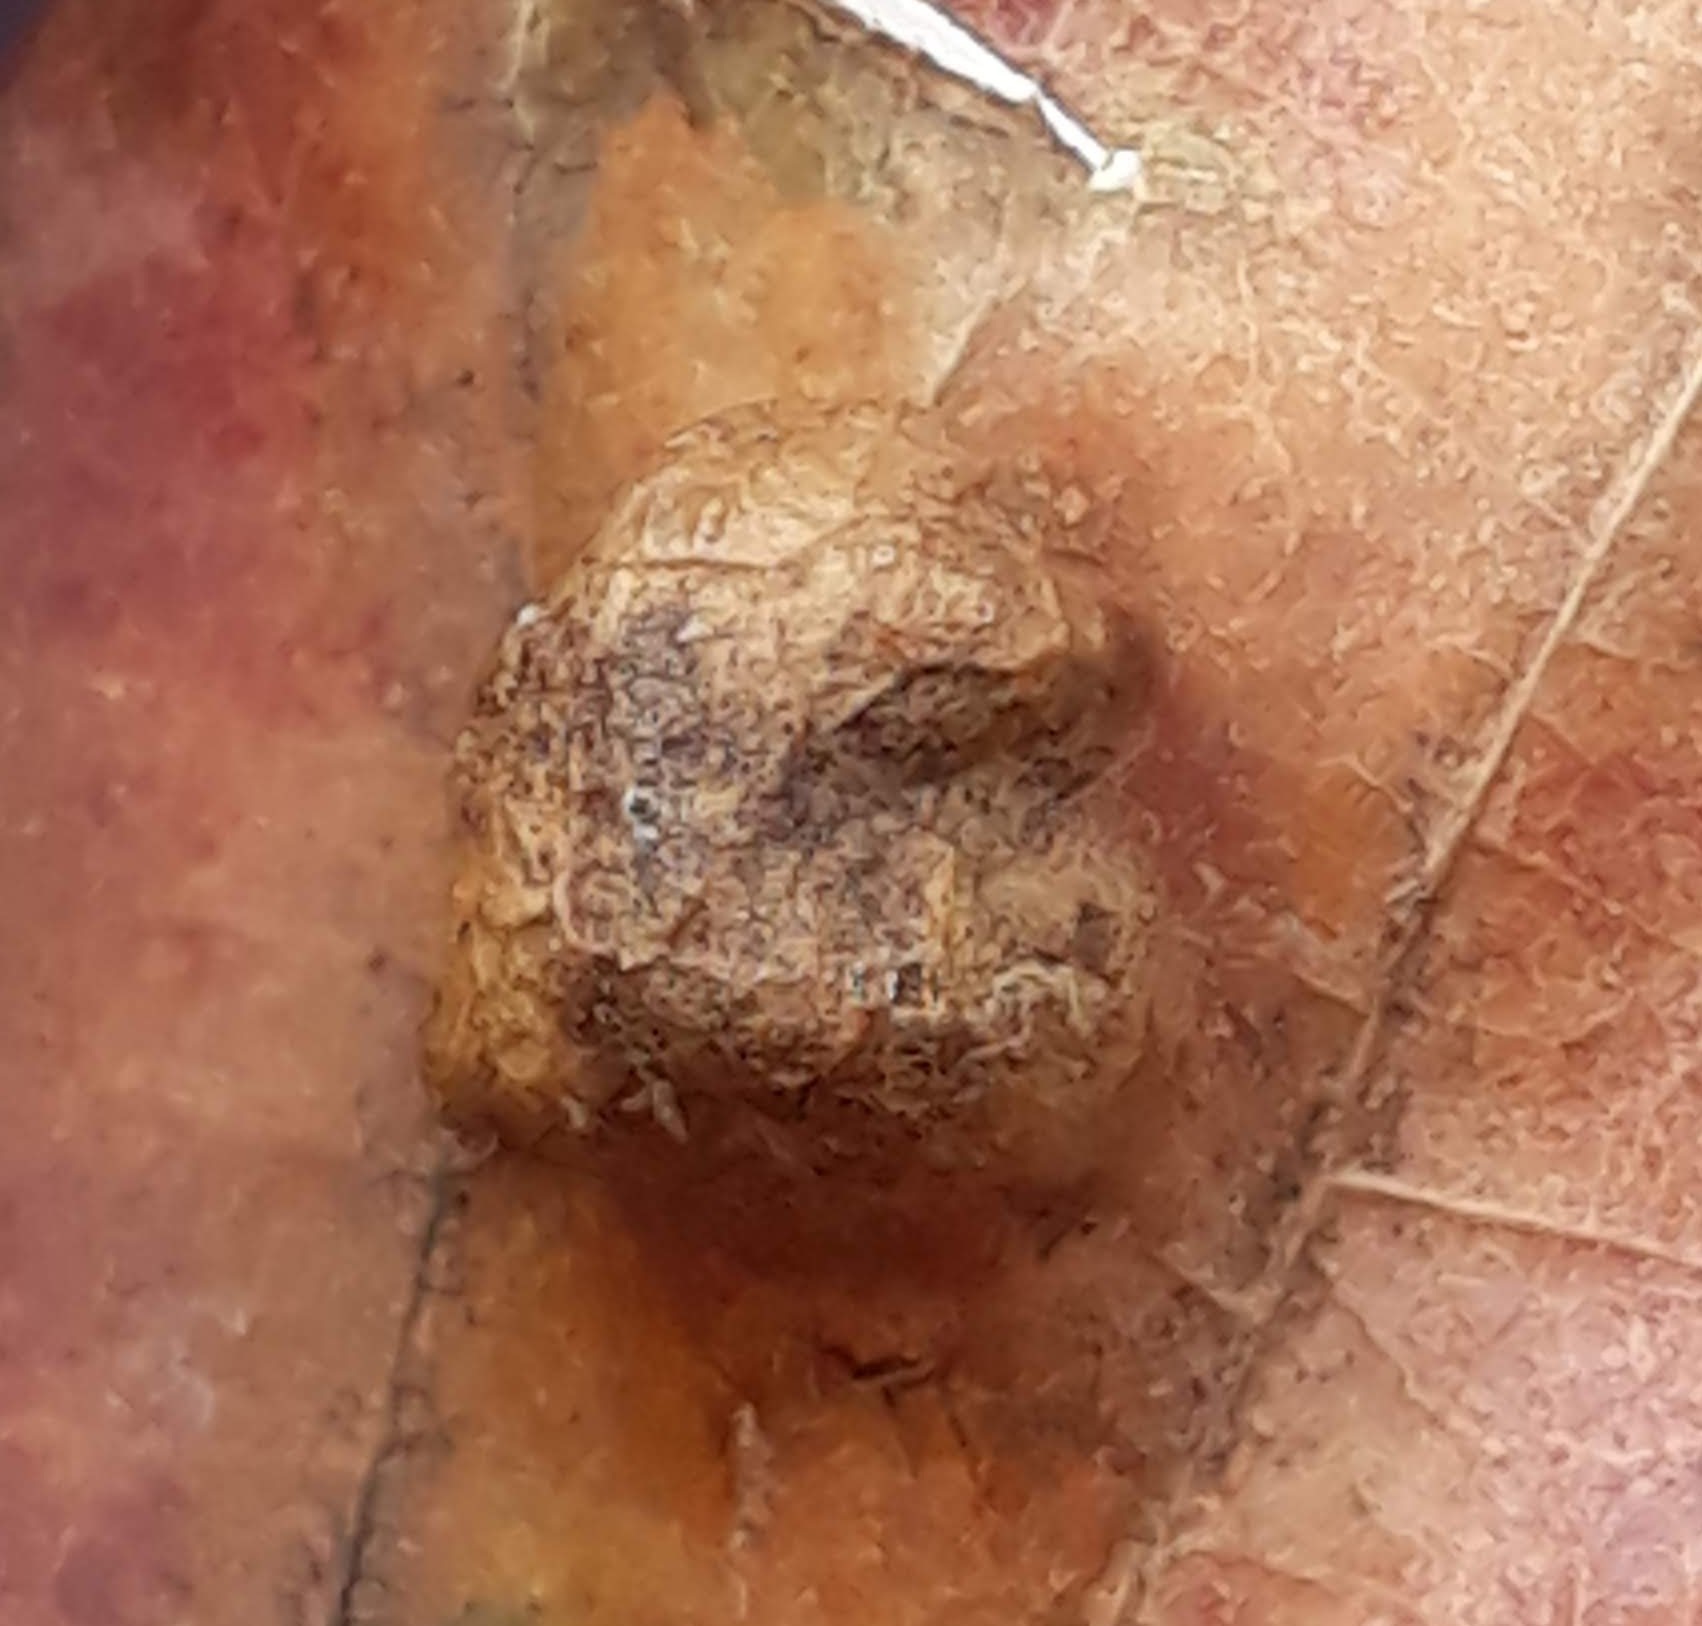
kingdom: Animalia
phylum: Arthropoda
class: Arachnida
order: Trombidiformes
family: Eriophyidae
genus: Aceria
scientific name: Aceria
